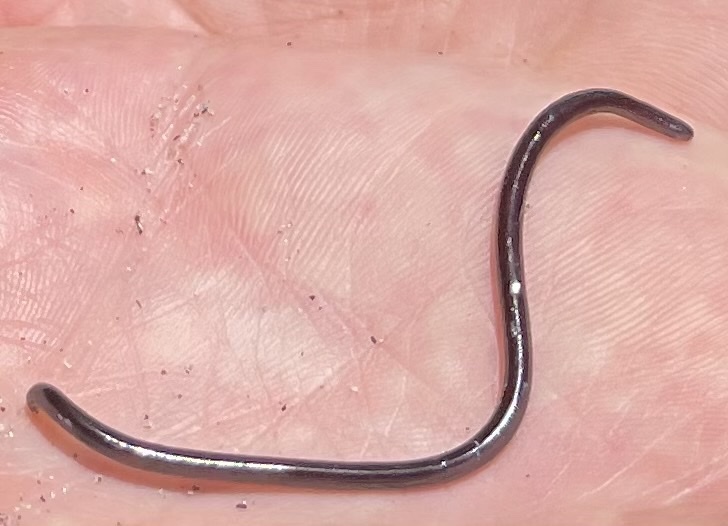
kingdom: Animalia
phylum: Chordata
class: Squamata
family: Typhlopidae
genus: Indotyphlops
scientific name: Indotyphlops braminus
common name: Brahminy blindsnake
